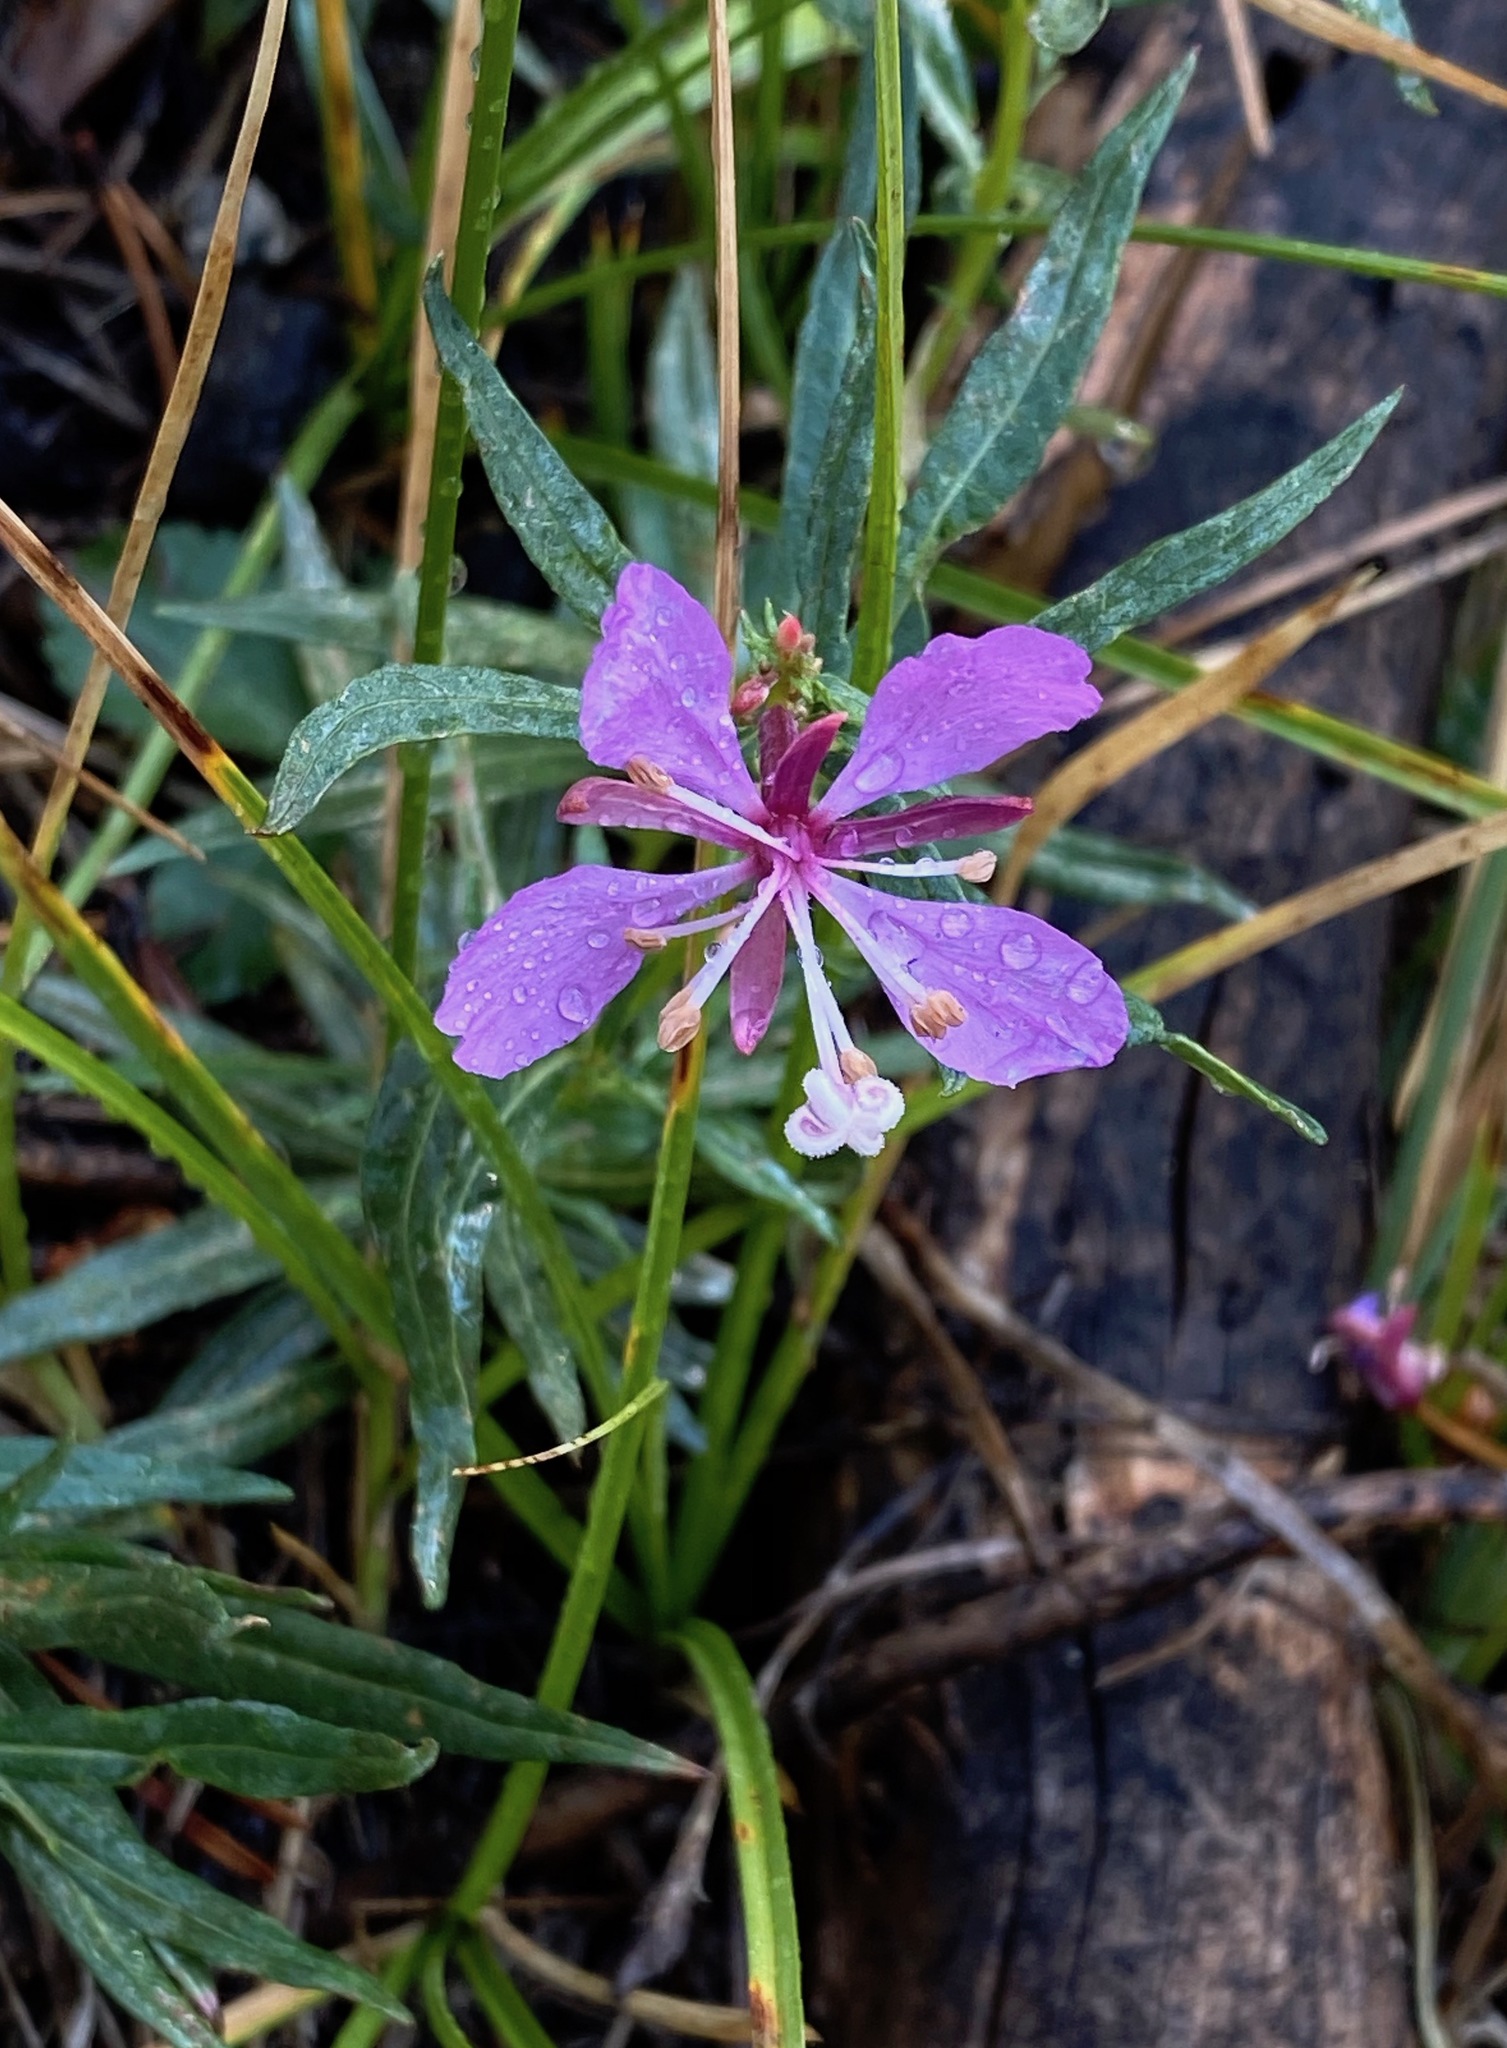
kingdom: Plantae
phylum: Tracheophyta
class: Magnoliopsida
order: Myrtales
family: Onagraceae
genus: Chamaenerion
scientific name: Chamaenerion angustifolium
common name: Fireweed
